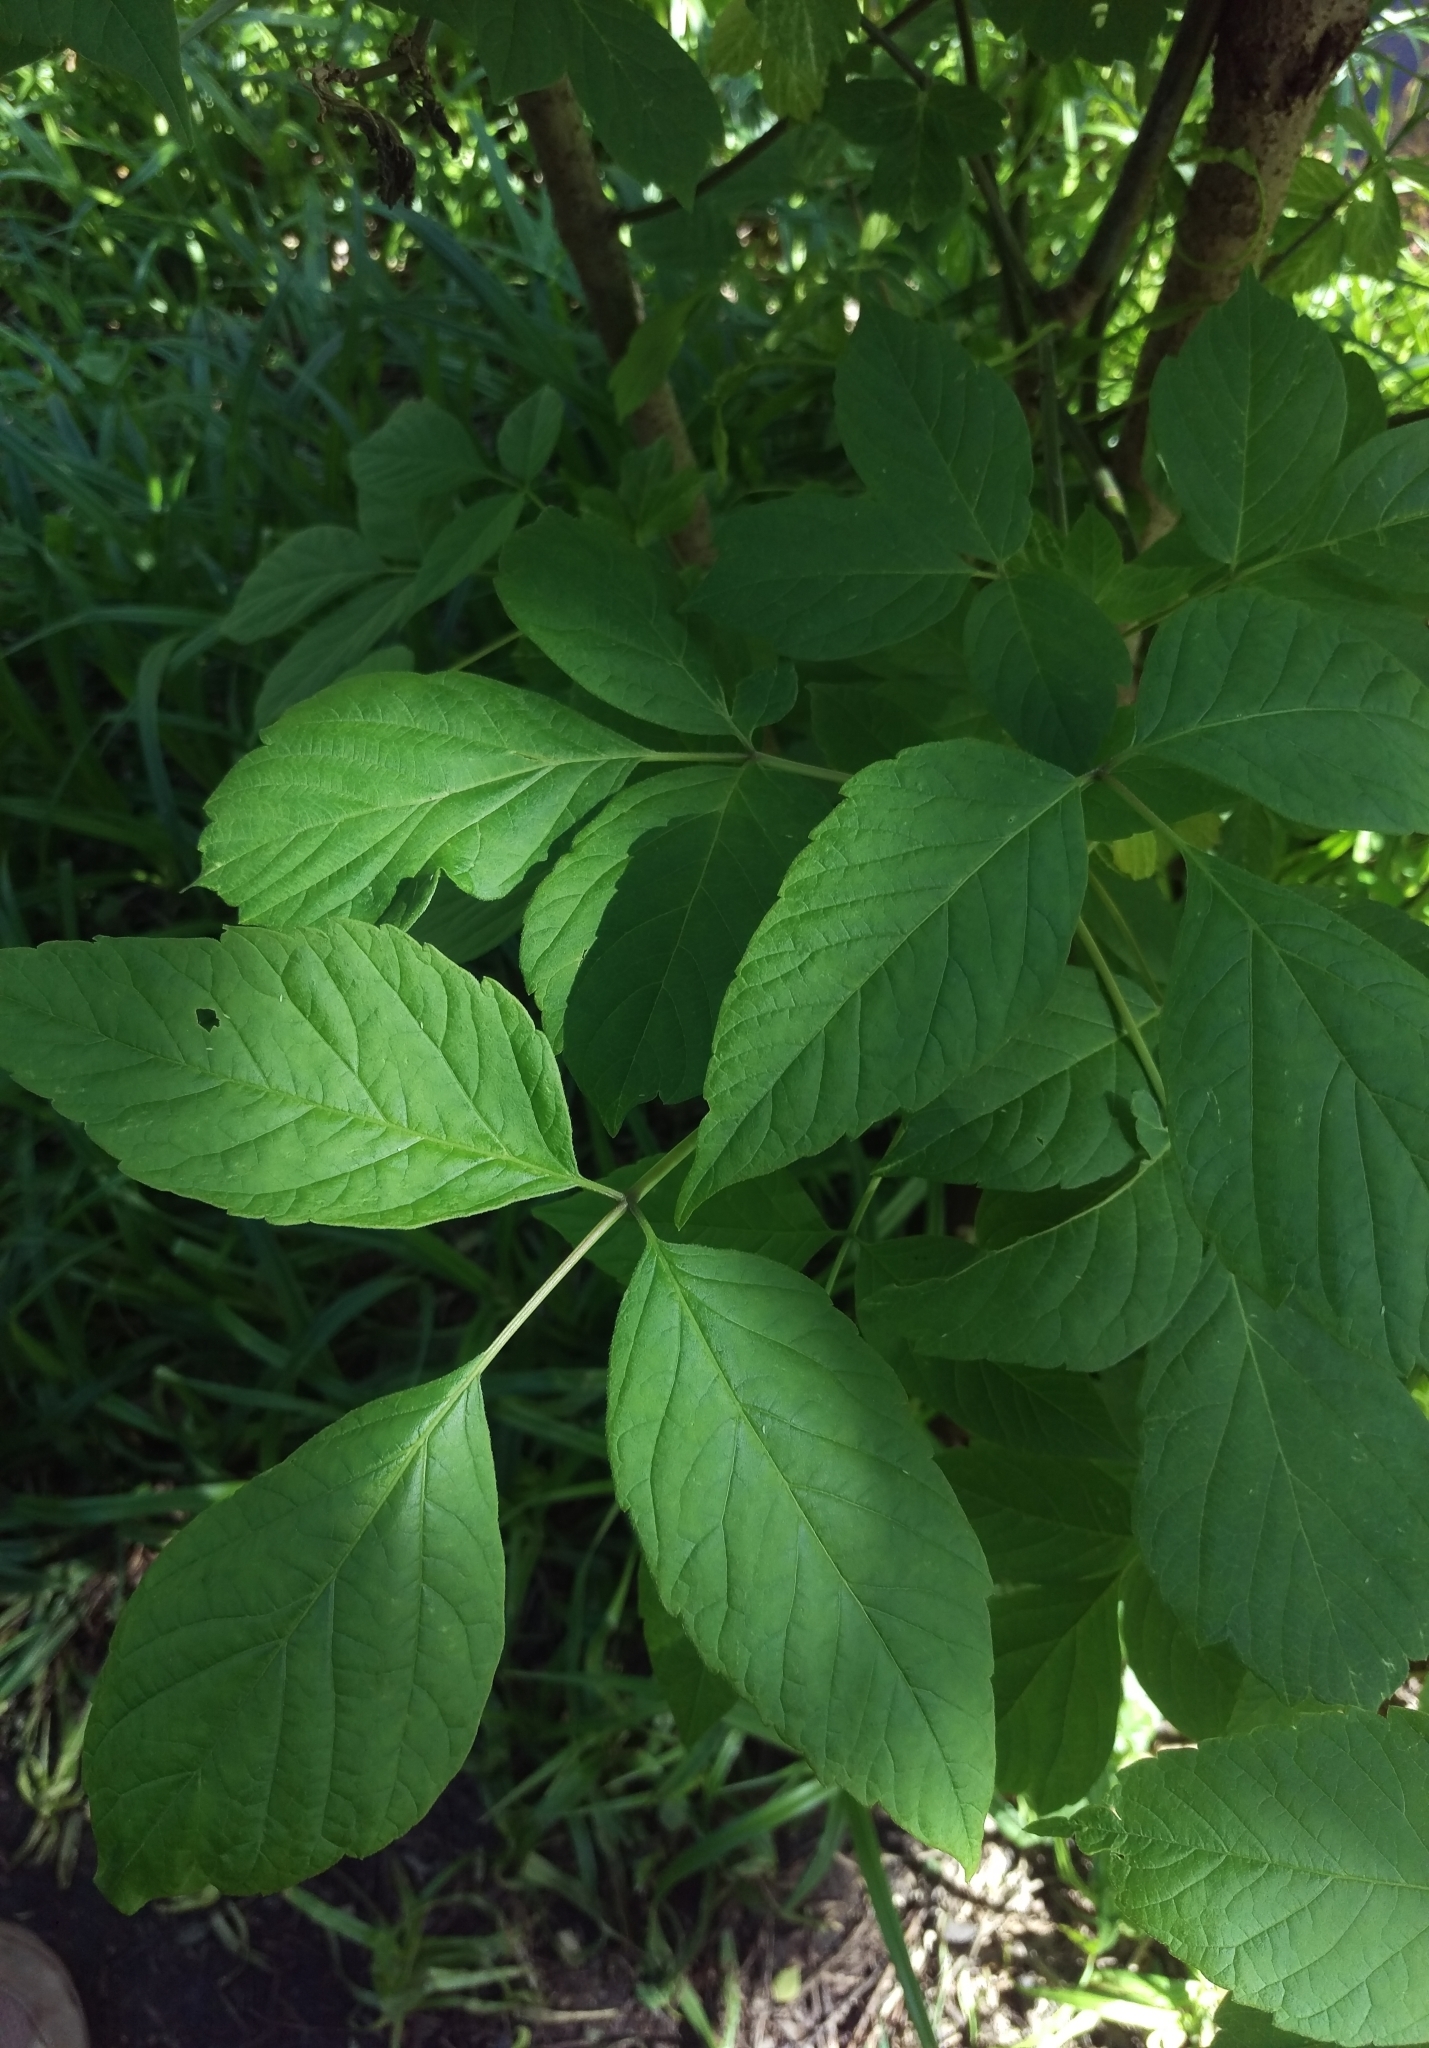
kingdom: Plantae
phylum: Tracheophyta
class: Magnoliopsida
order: Sapindales
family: Sapindaceae
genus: Acer
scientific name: Acer negundo
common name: Ashleaf maple
